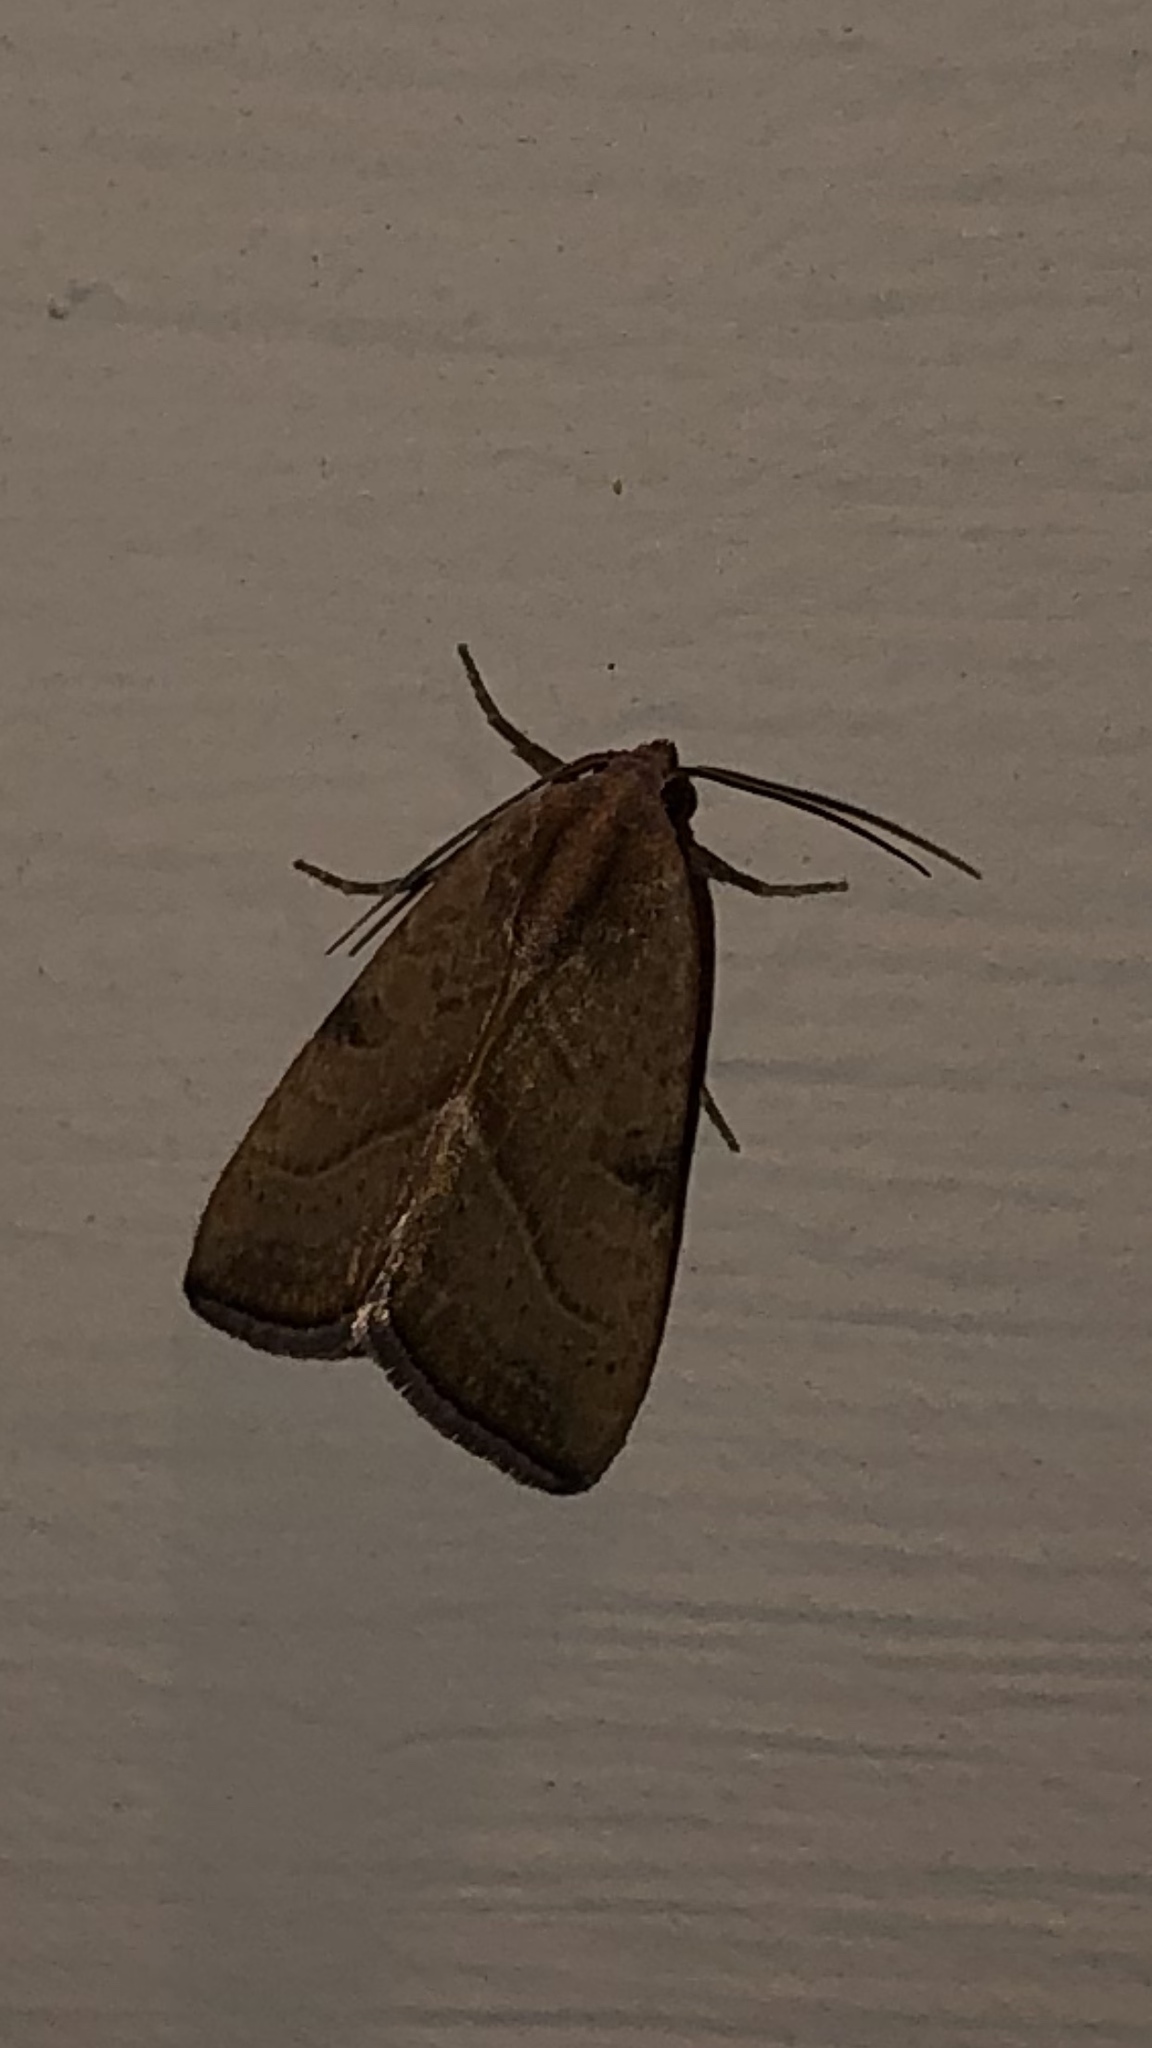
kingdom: Animalia
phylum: Arthropoda
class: Insecta
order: Lepidoptera
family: Noctuidae
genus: Galgula
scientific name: Galgula partita
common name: Wedgeling
